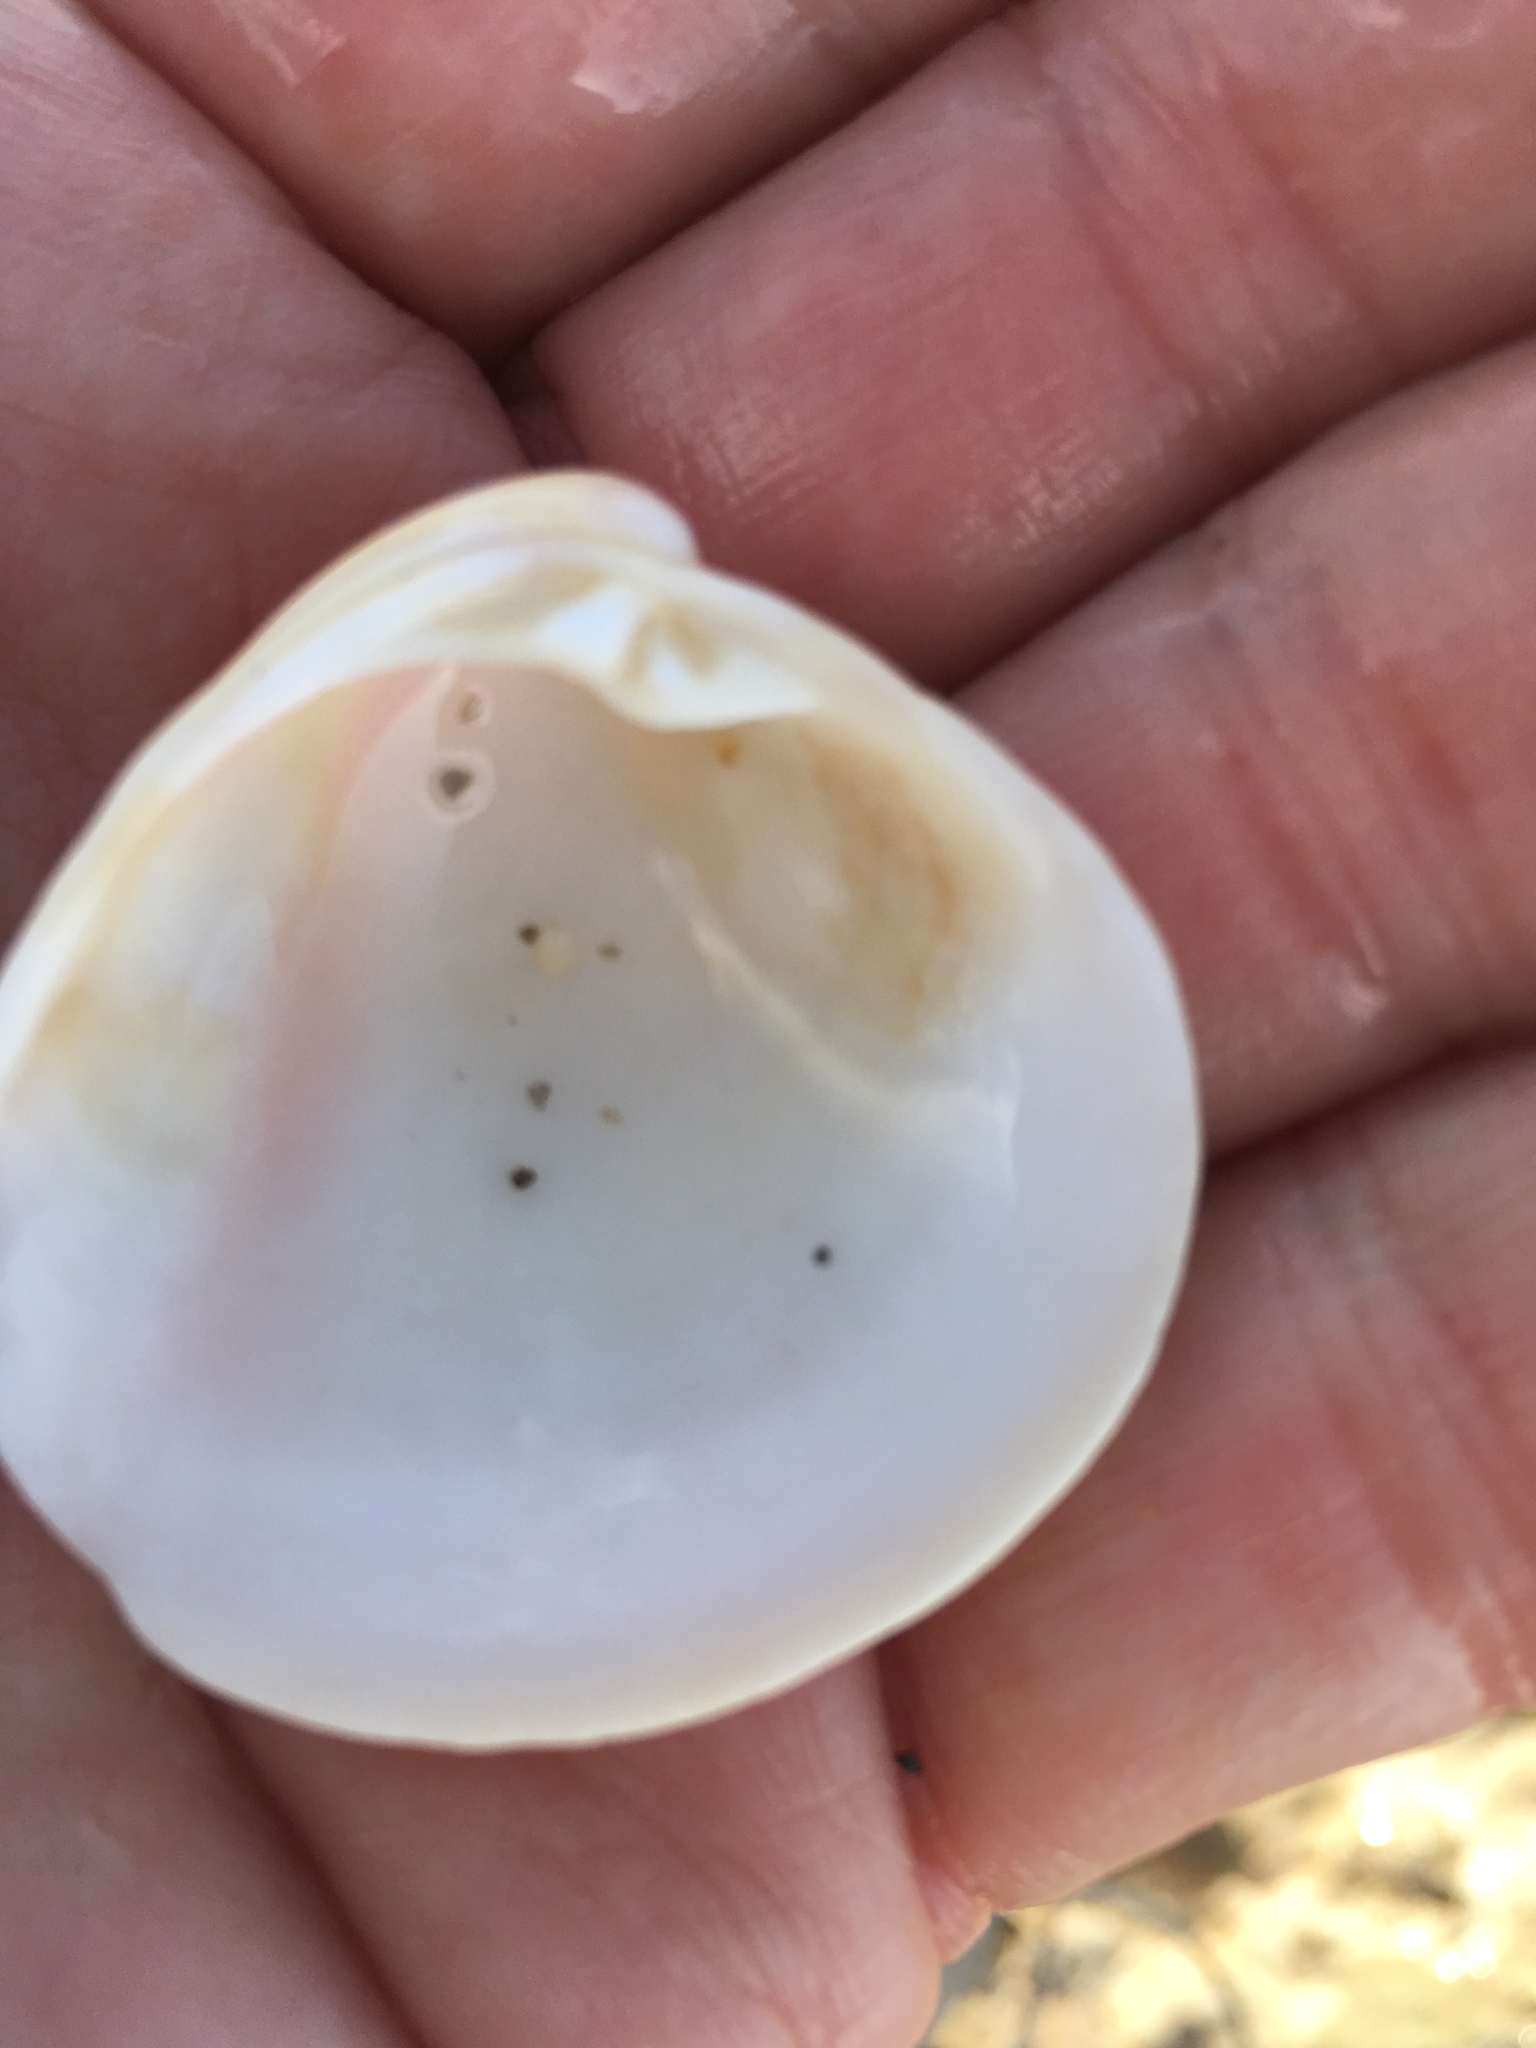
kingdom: Animalia
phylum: Mollusca
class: Bivalvia
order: Venerida
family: Veneridae
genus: Chionopsis
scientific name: Chionopsis intapurpurea
